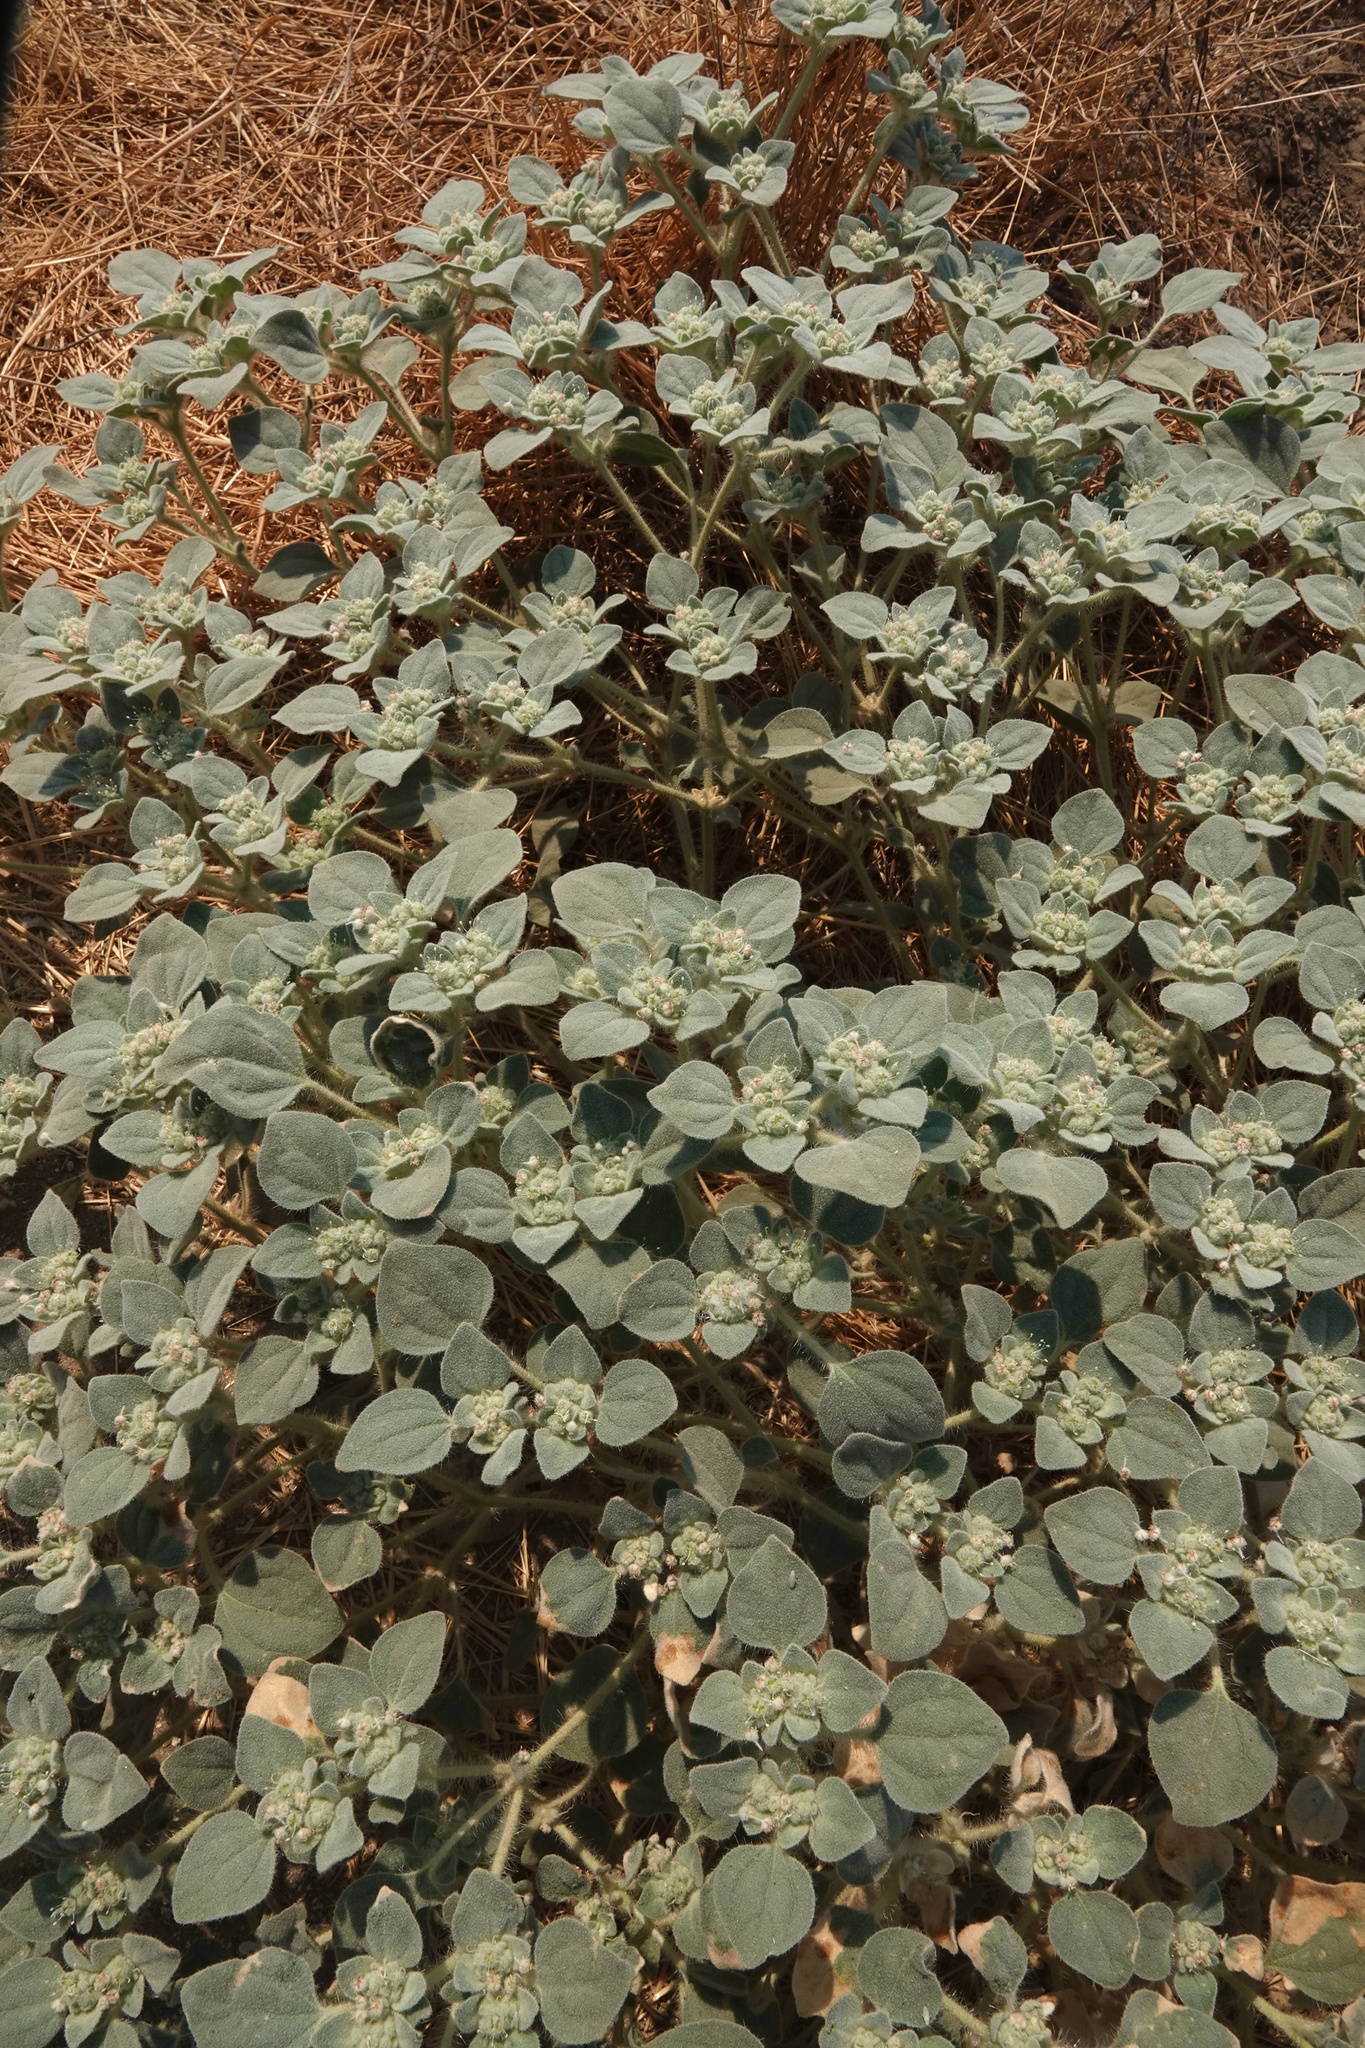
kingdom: Plantae
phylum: Tracheophyta
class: Magnoliopsida
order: Malpighiales
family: Euphorbiaceae
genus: Croton
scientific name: Croton setiger
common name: Dove weed
